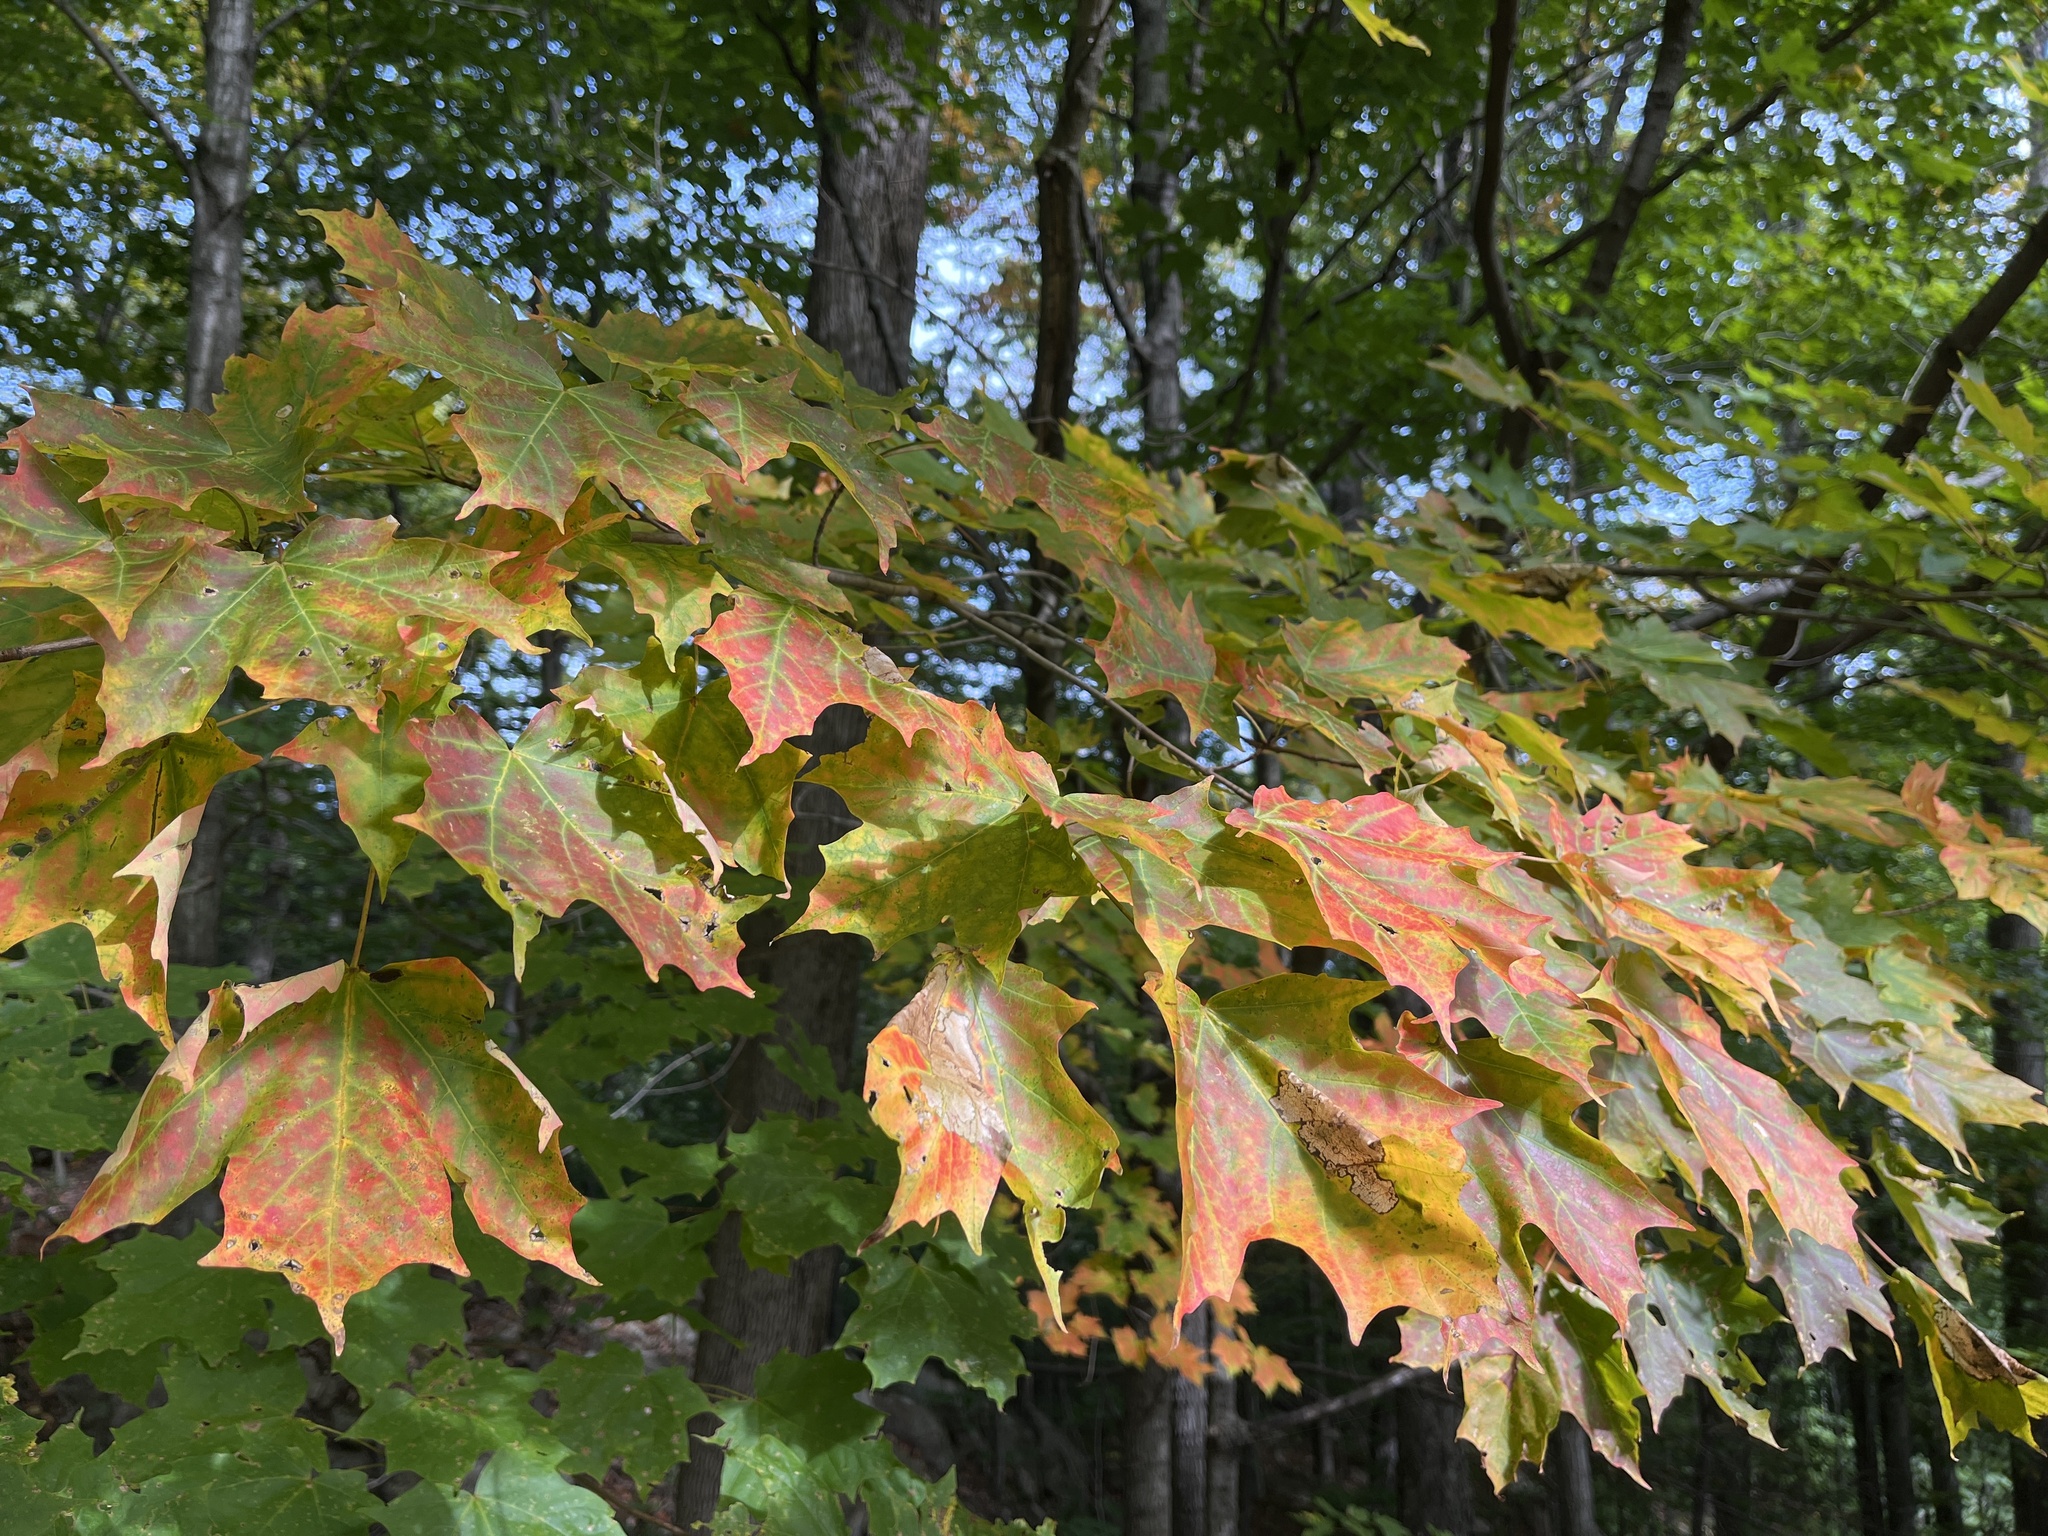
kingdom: Plantae
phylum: Tracheophyta
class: Magnoliopsida
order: Sapindales
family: Sapindaceae
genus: Acer
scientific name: Acer saccharum
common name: Sugar maple
